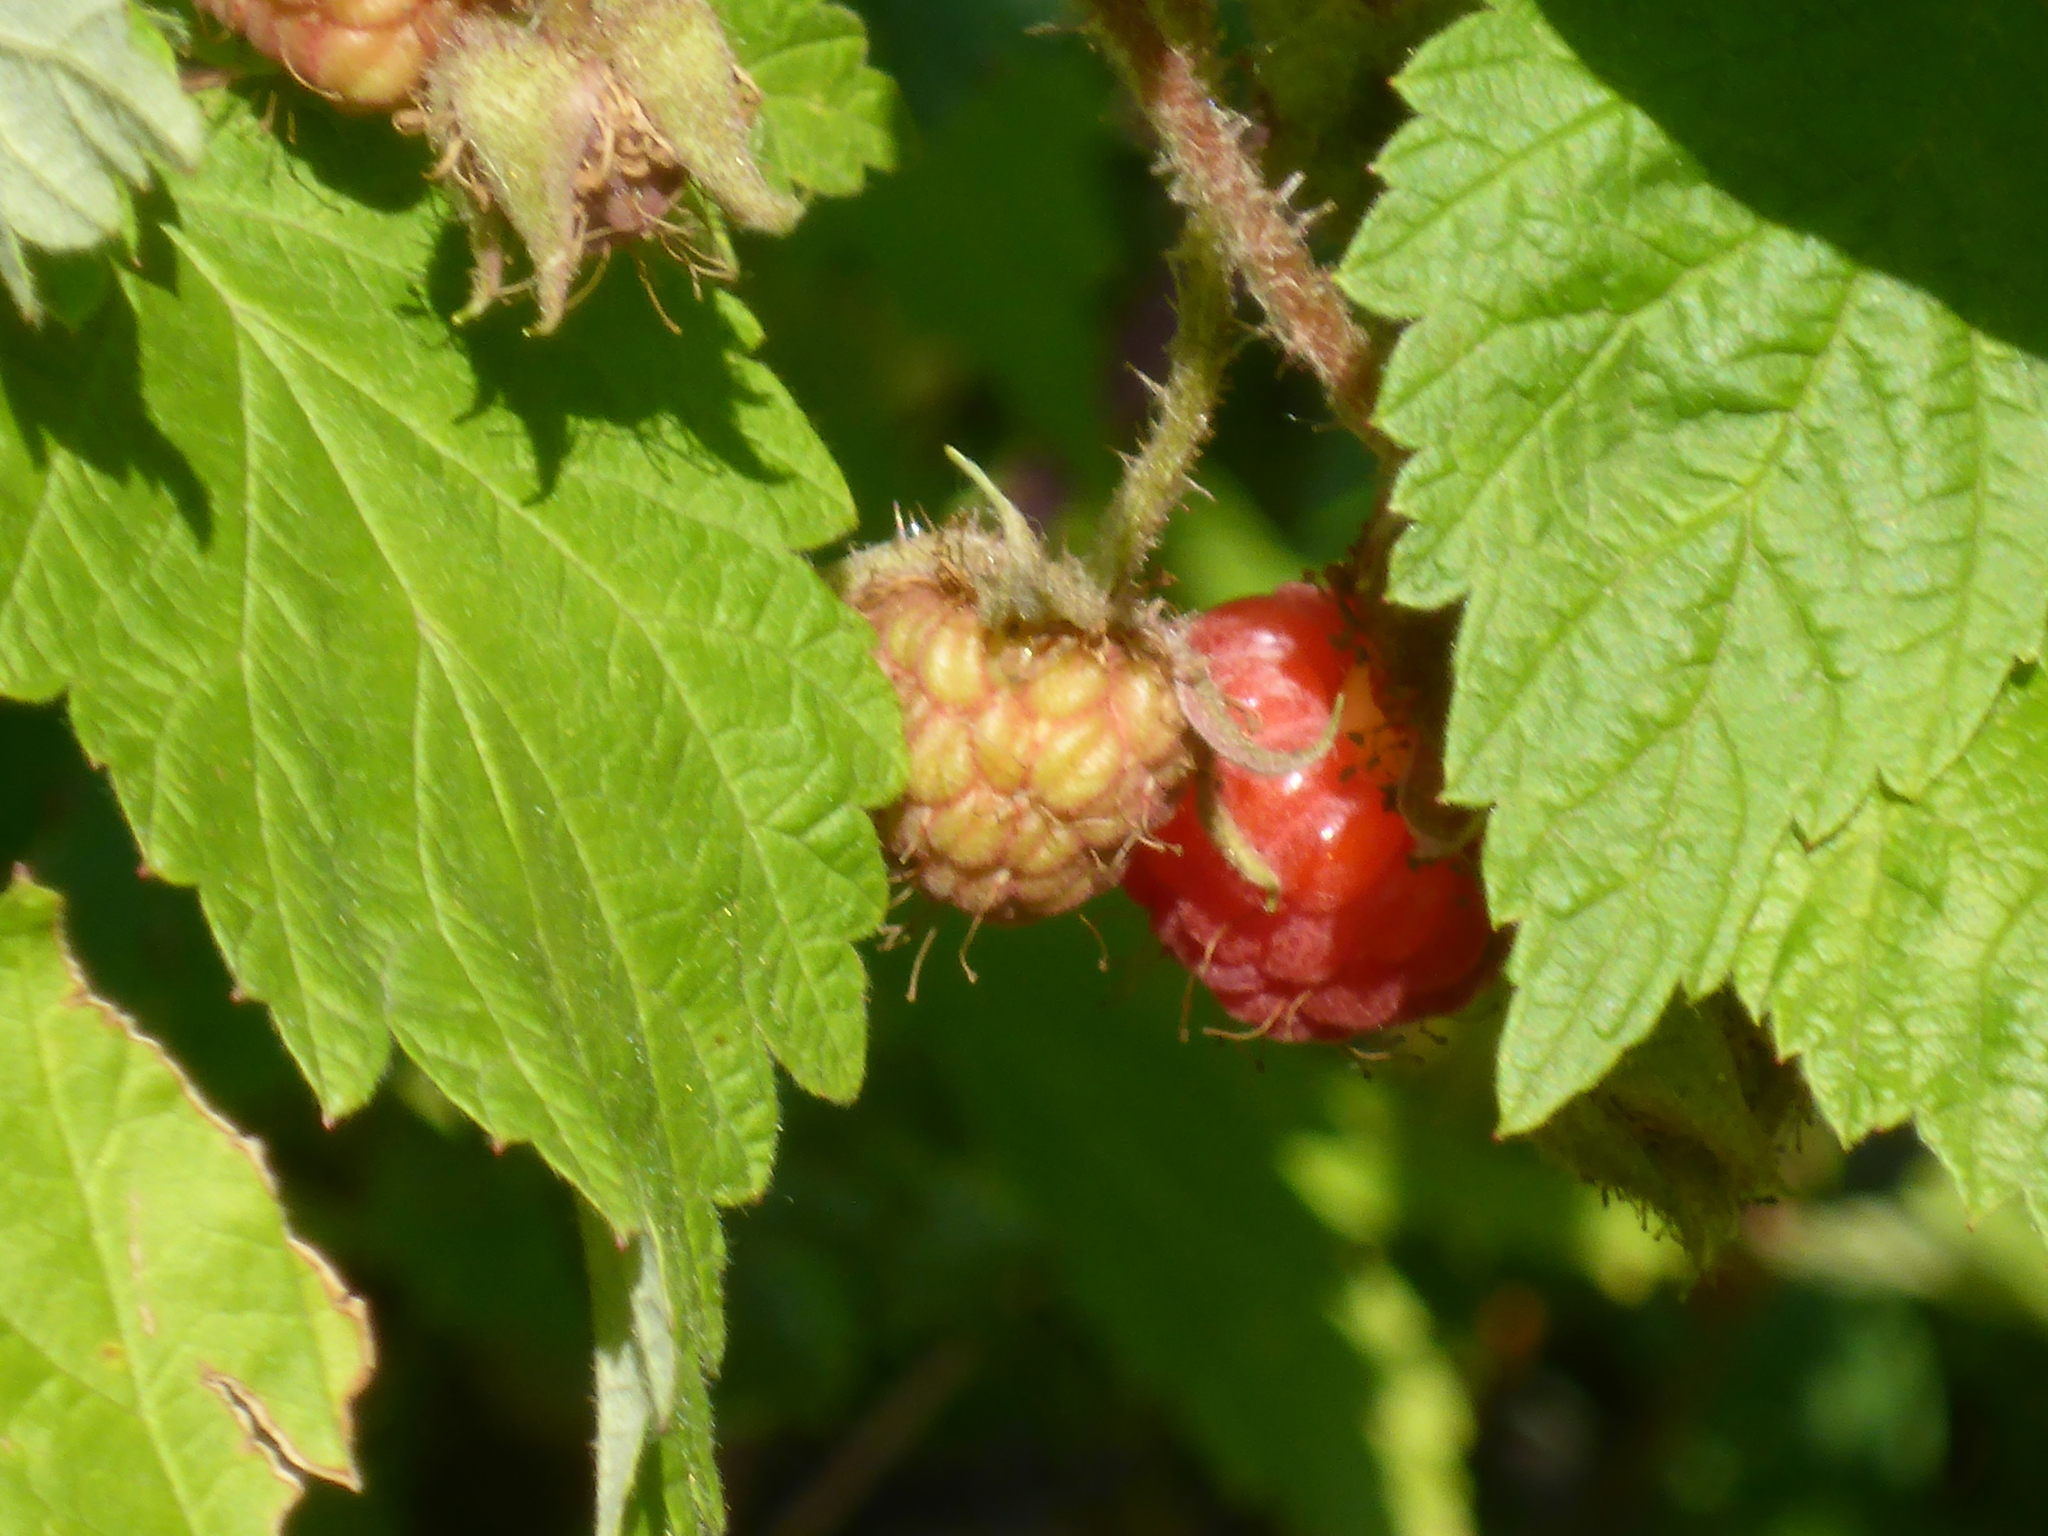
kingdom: Plantae
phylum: Tracheophyta
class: Magnoliopsida
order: Rosales
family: Rosaceae
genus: Rubus
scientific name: Rubus idaeus
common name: Raspberry
